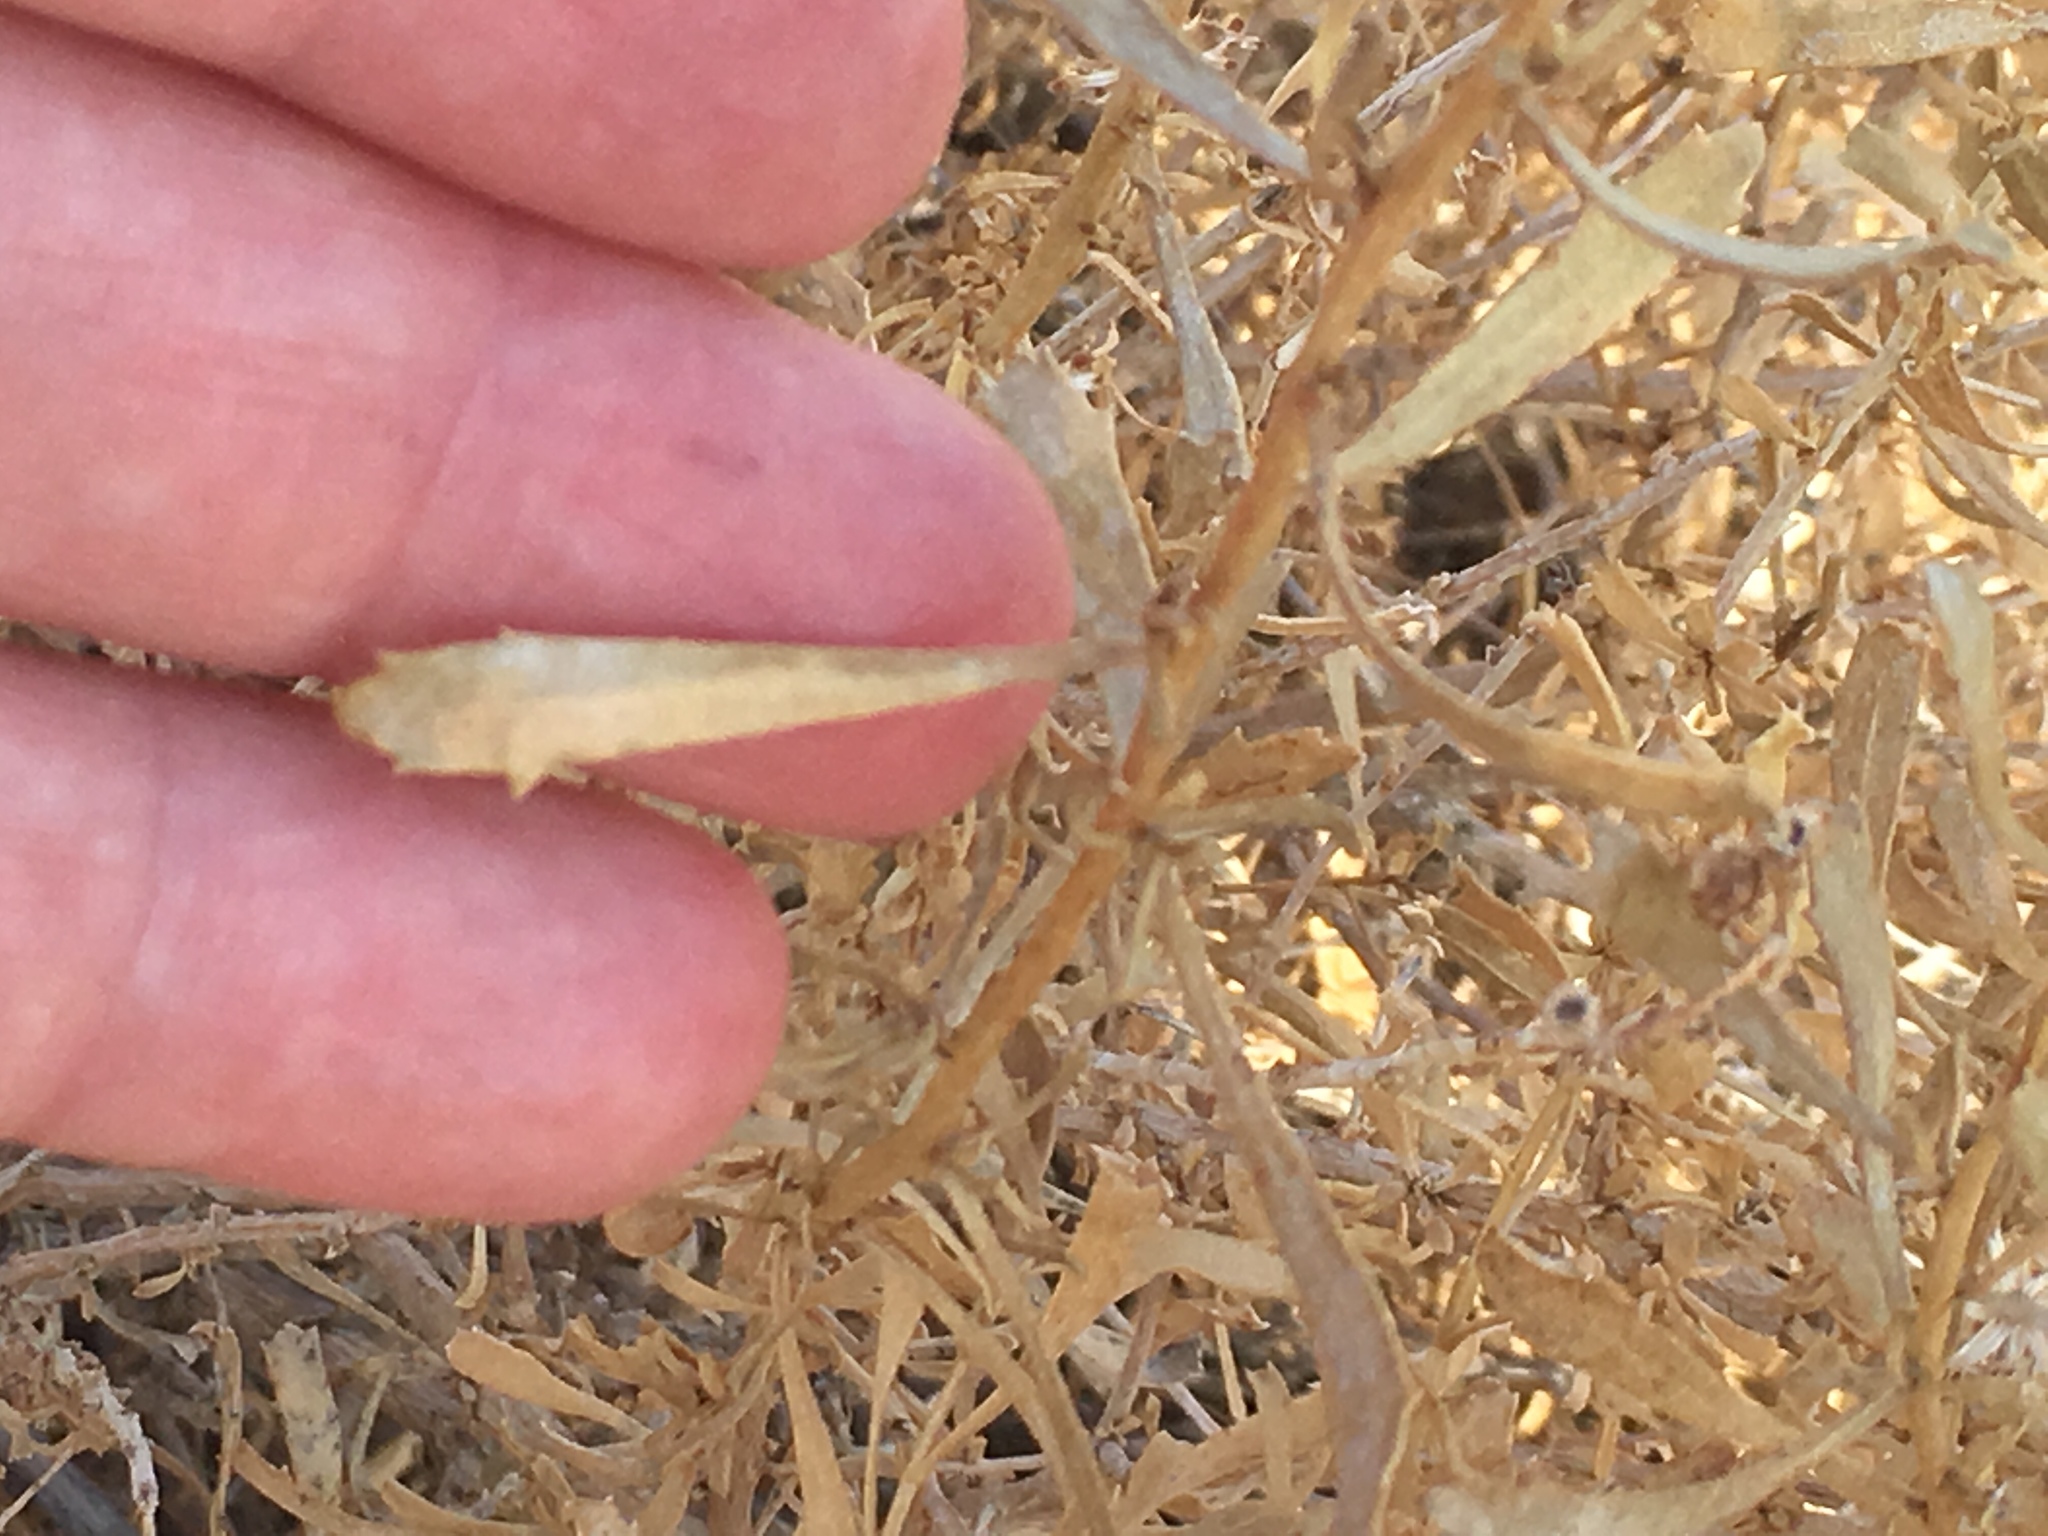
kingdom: Plantae
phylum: Tracheophyta
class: Magnoliopsida
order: Asterales
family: Asteraceae
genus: Isocoma
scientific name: Isocoma acradenia
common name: Alkali jimmyweed
